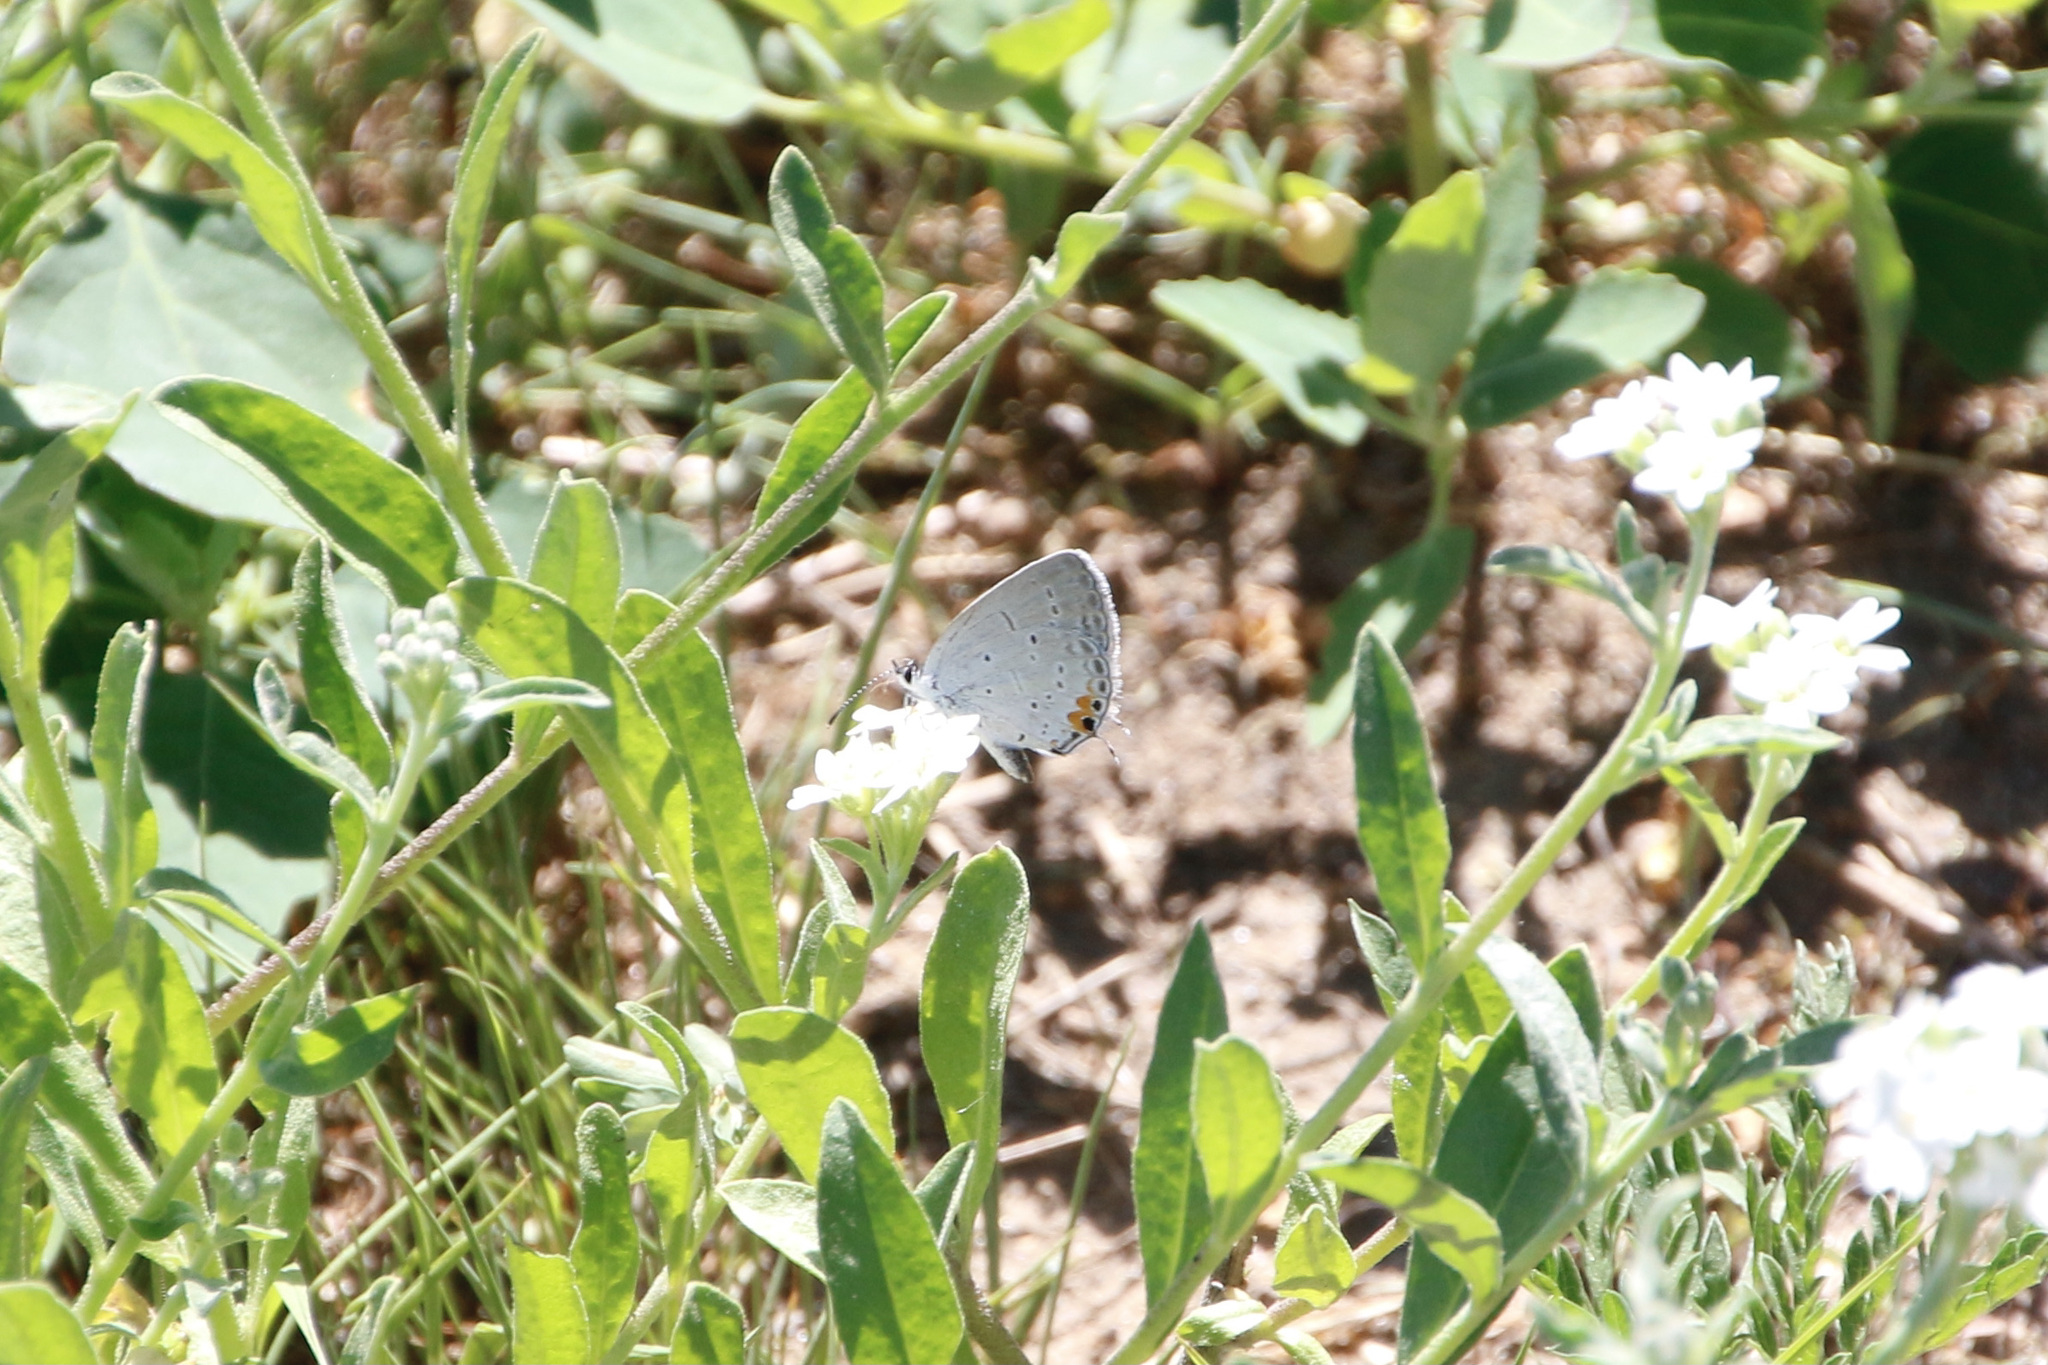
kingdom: Animalia
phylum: Arthropoda
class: Insecta
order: Lepidoptera
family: Lycaenidae
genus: Elkalyce
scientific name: Elkalyce comyntas
